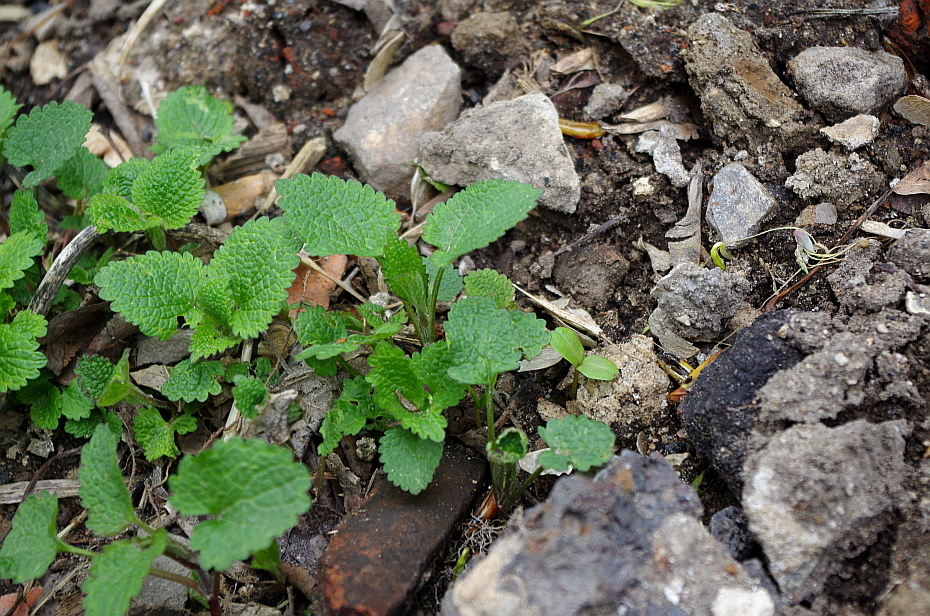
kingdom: Plantae
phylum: Tracheophyta
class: Magnoliopsida
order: Lamiales
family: Lamiaceae
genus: Lamium
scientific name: Lamium album
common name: White dead-nettle
